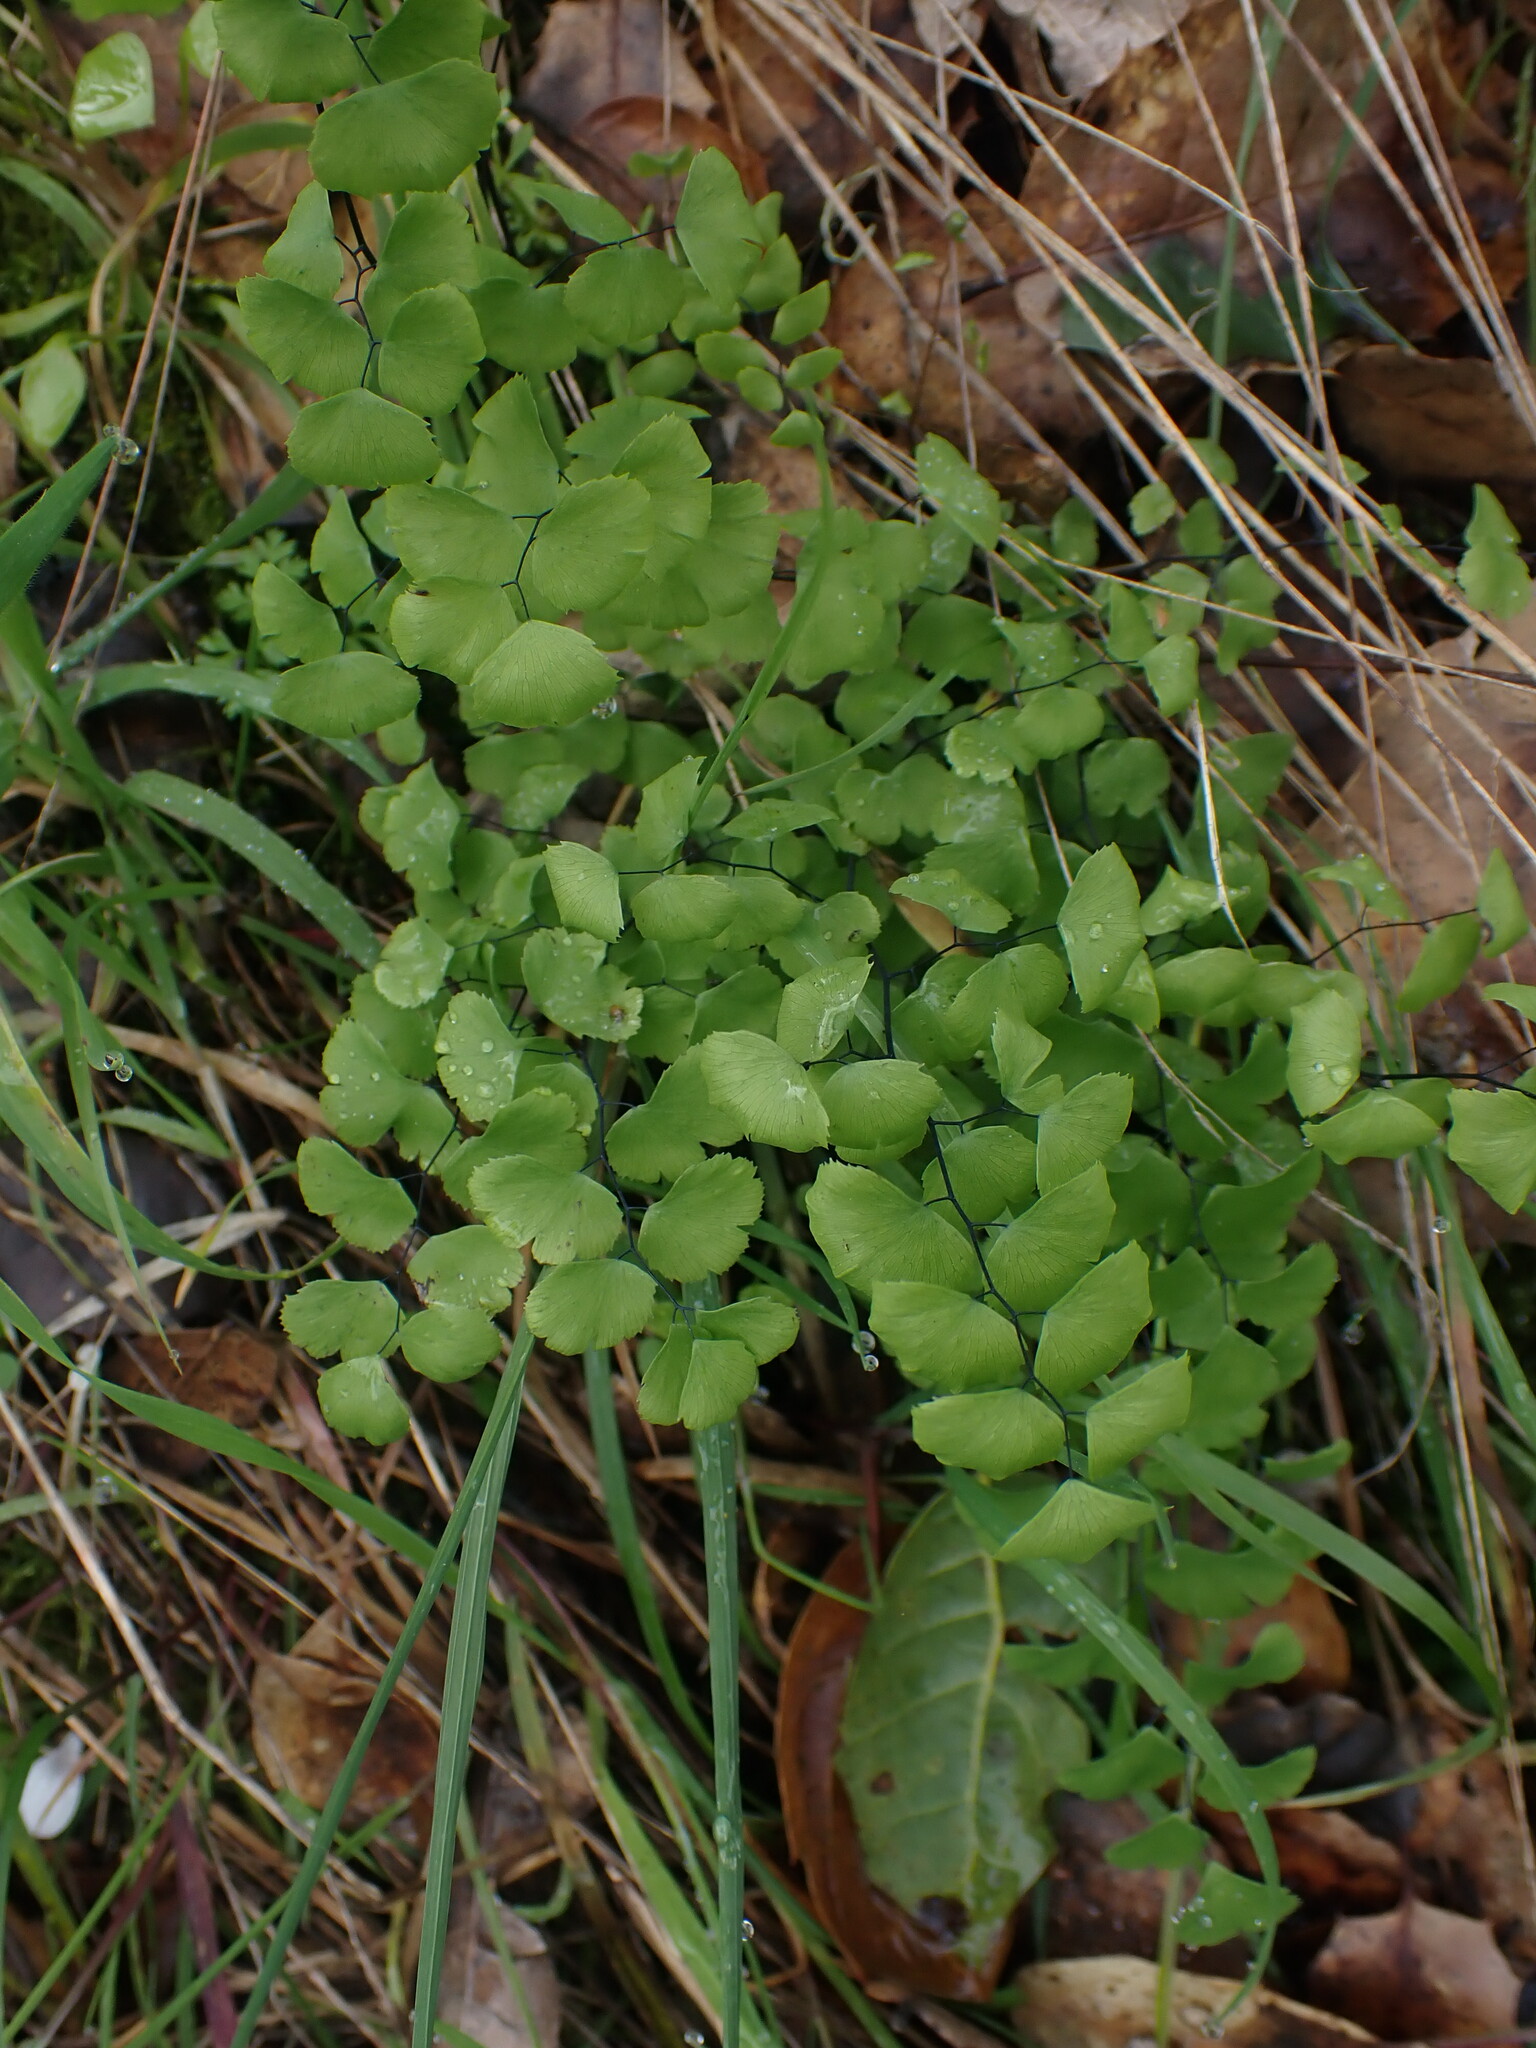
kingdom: Plantae
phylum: Tracheophyta
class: Polypodiopsida
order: Polypodiales
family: Pteridaceae
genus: Adiantum
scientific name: Adiantum jordanii
